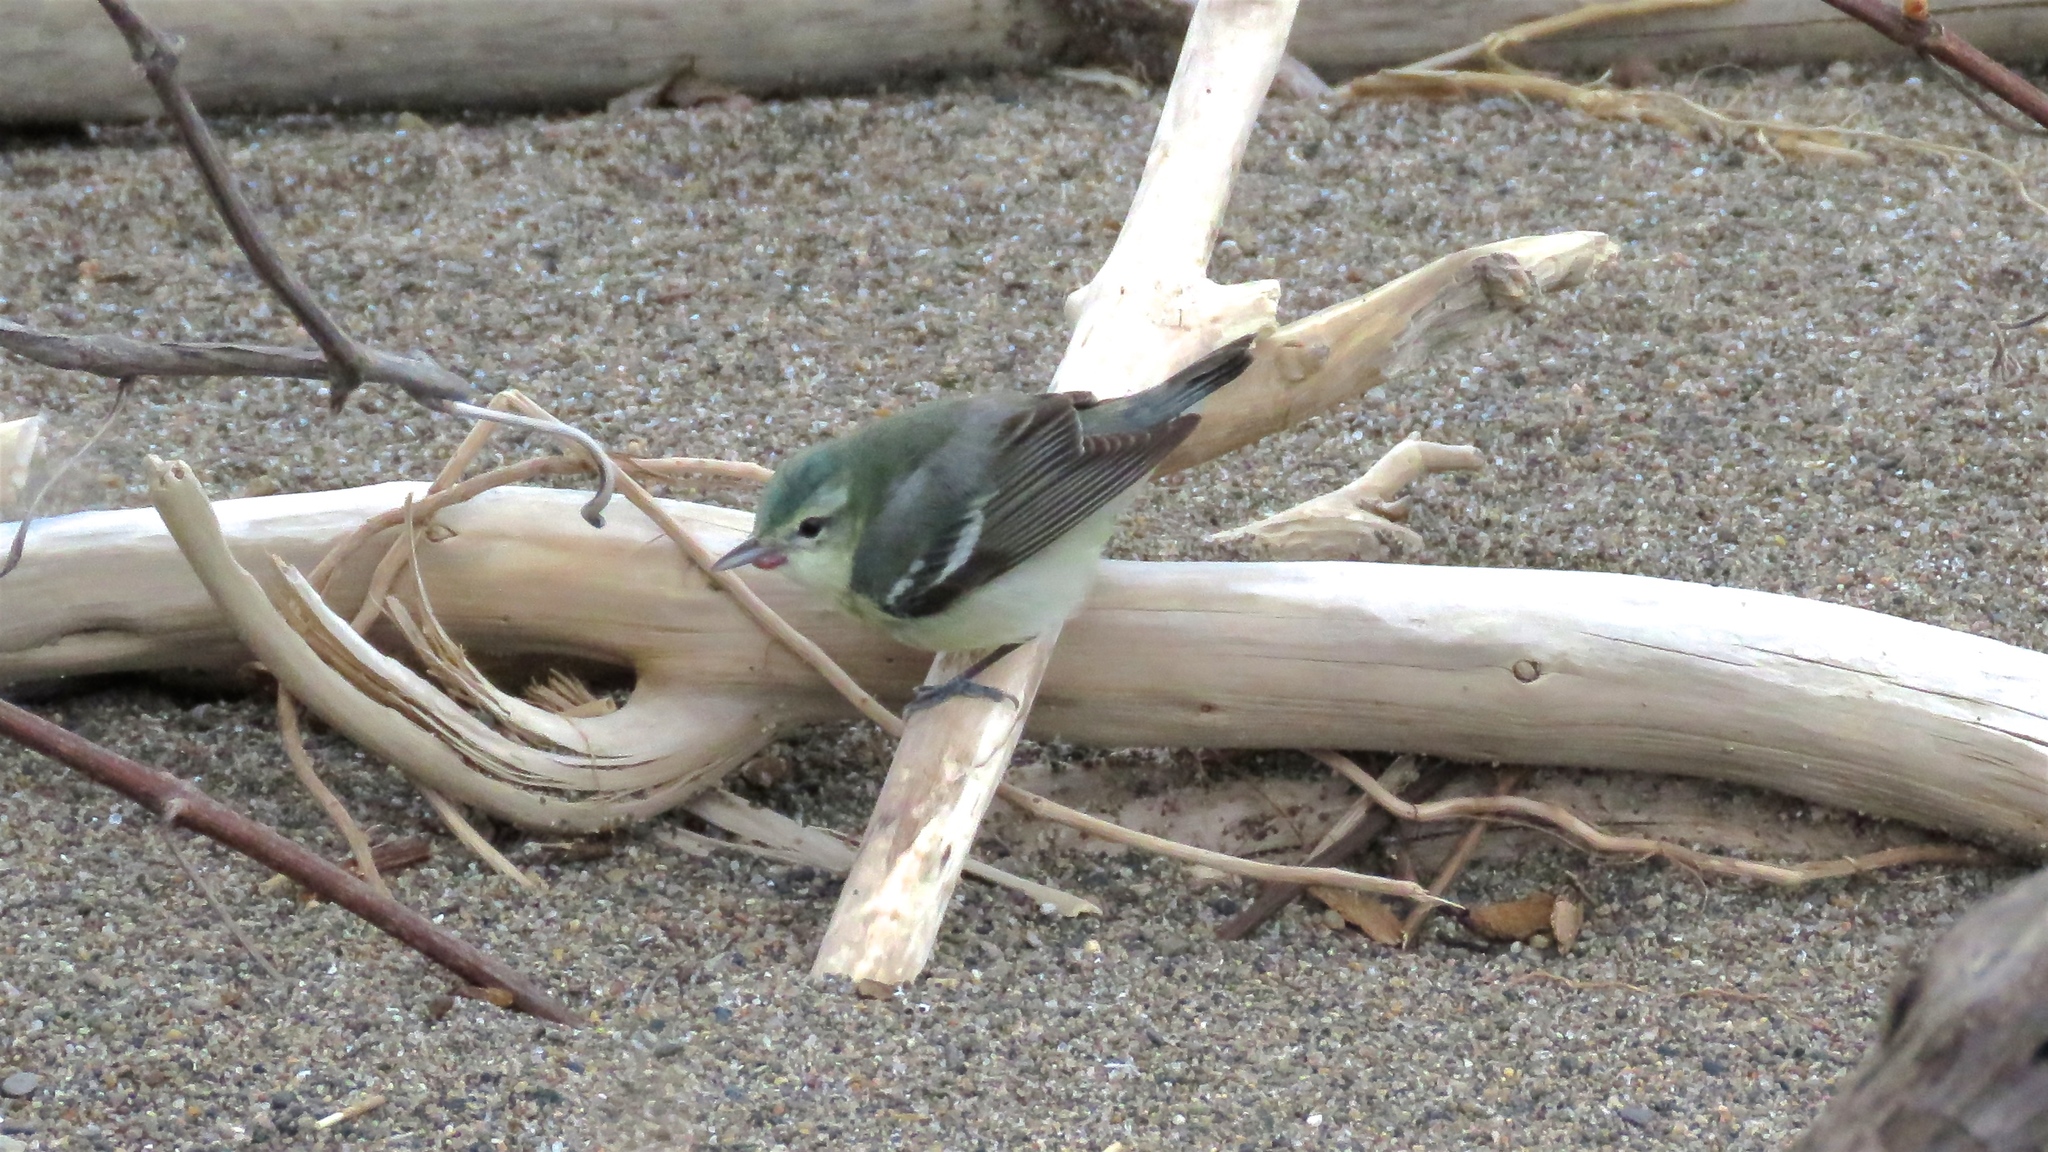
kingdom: Animalia
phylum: Chordata
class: Aves
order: Passeriformes
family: Parulidae
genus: Setophaga
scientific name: Setophaga cerulea
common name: Cerulean warbler
